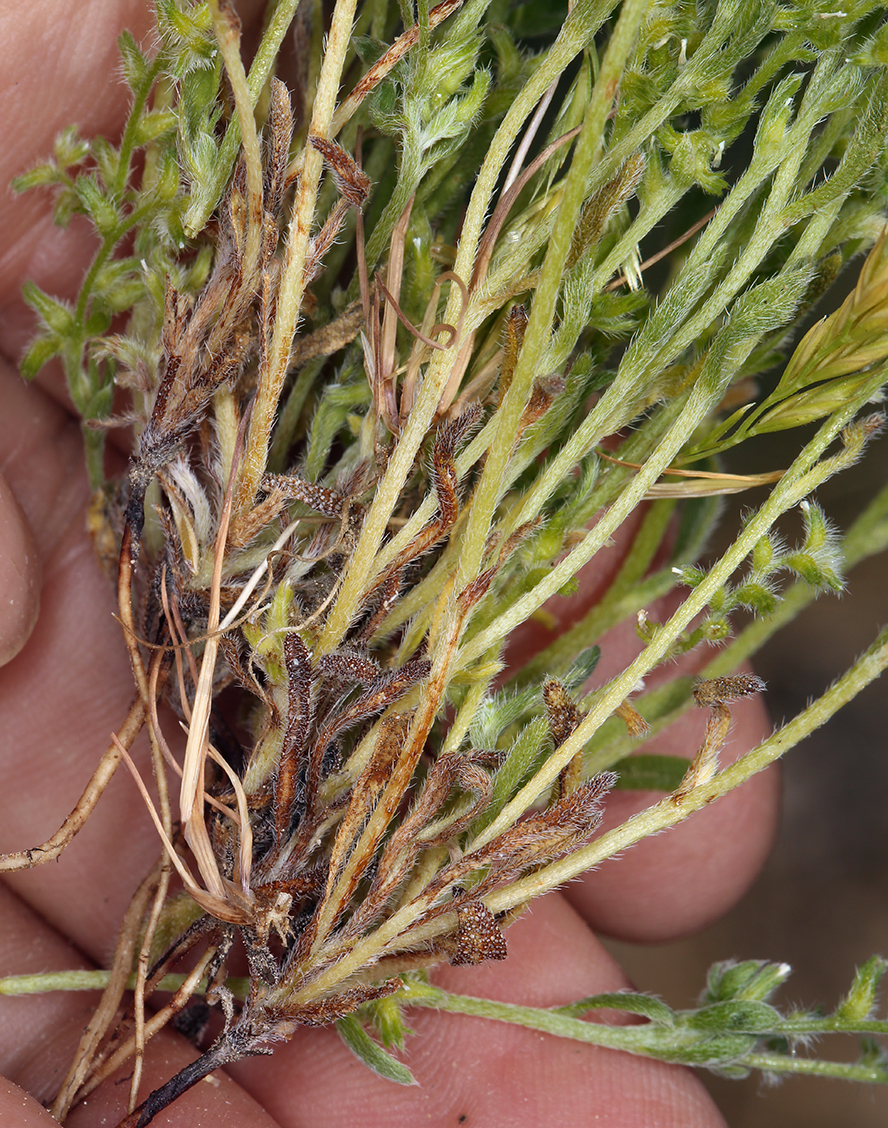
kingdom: Plantae
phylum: Tracheophyta
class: Magnoliopsida
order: Boraginales
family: Boraginaceae
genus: Cryptantha
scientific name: Cryptantha recurvata
